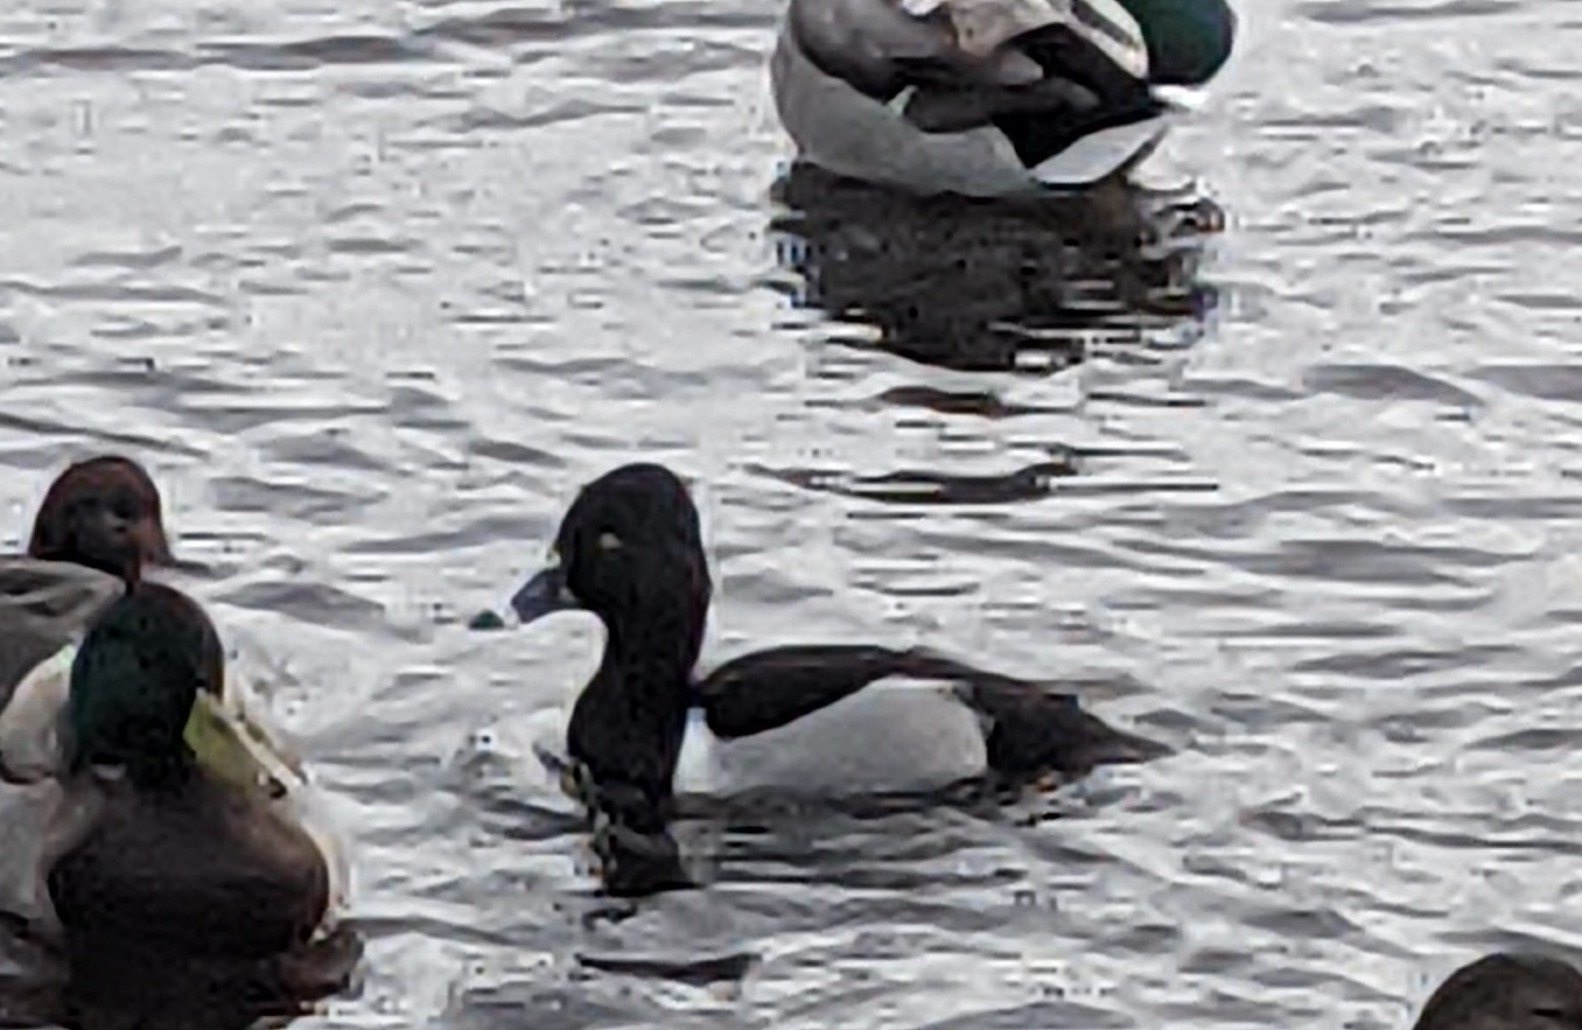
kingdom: Animalia
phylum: Chordata
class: Aves
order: Anseriformes
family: Anatidae
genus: Aythya
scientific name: Aythya collaris
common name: Ring-necked duck
